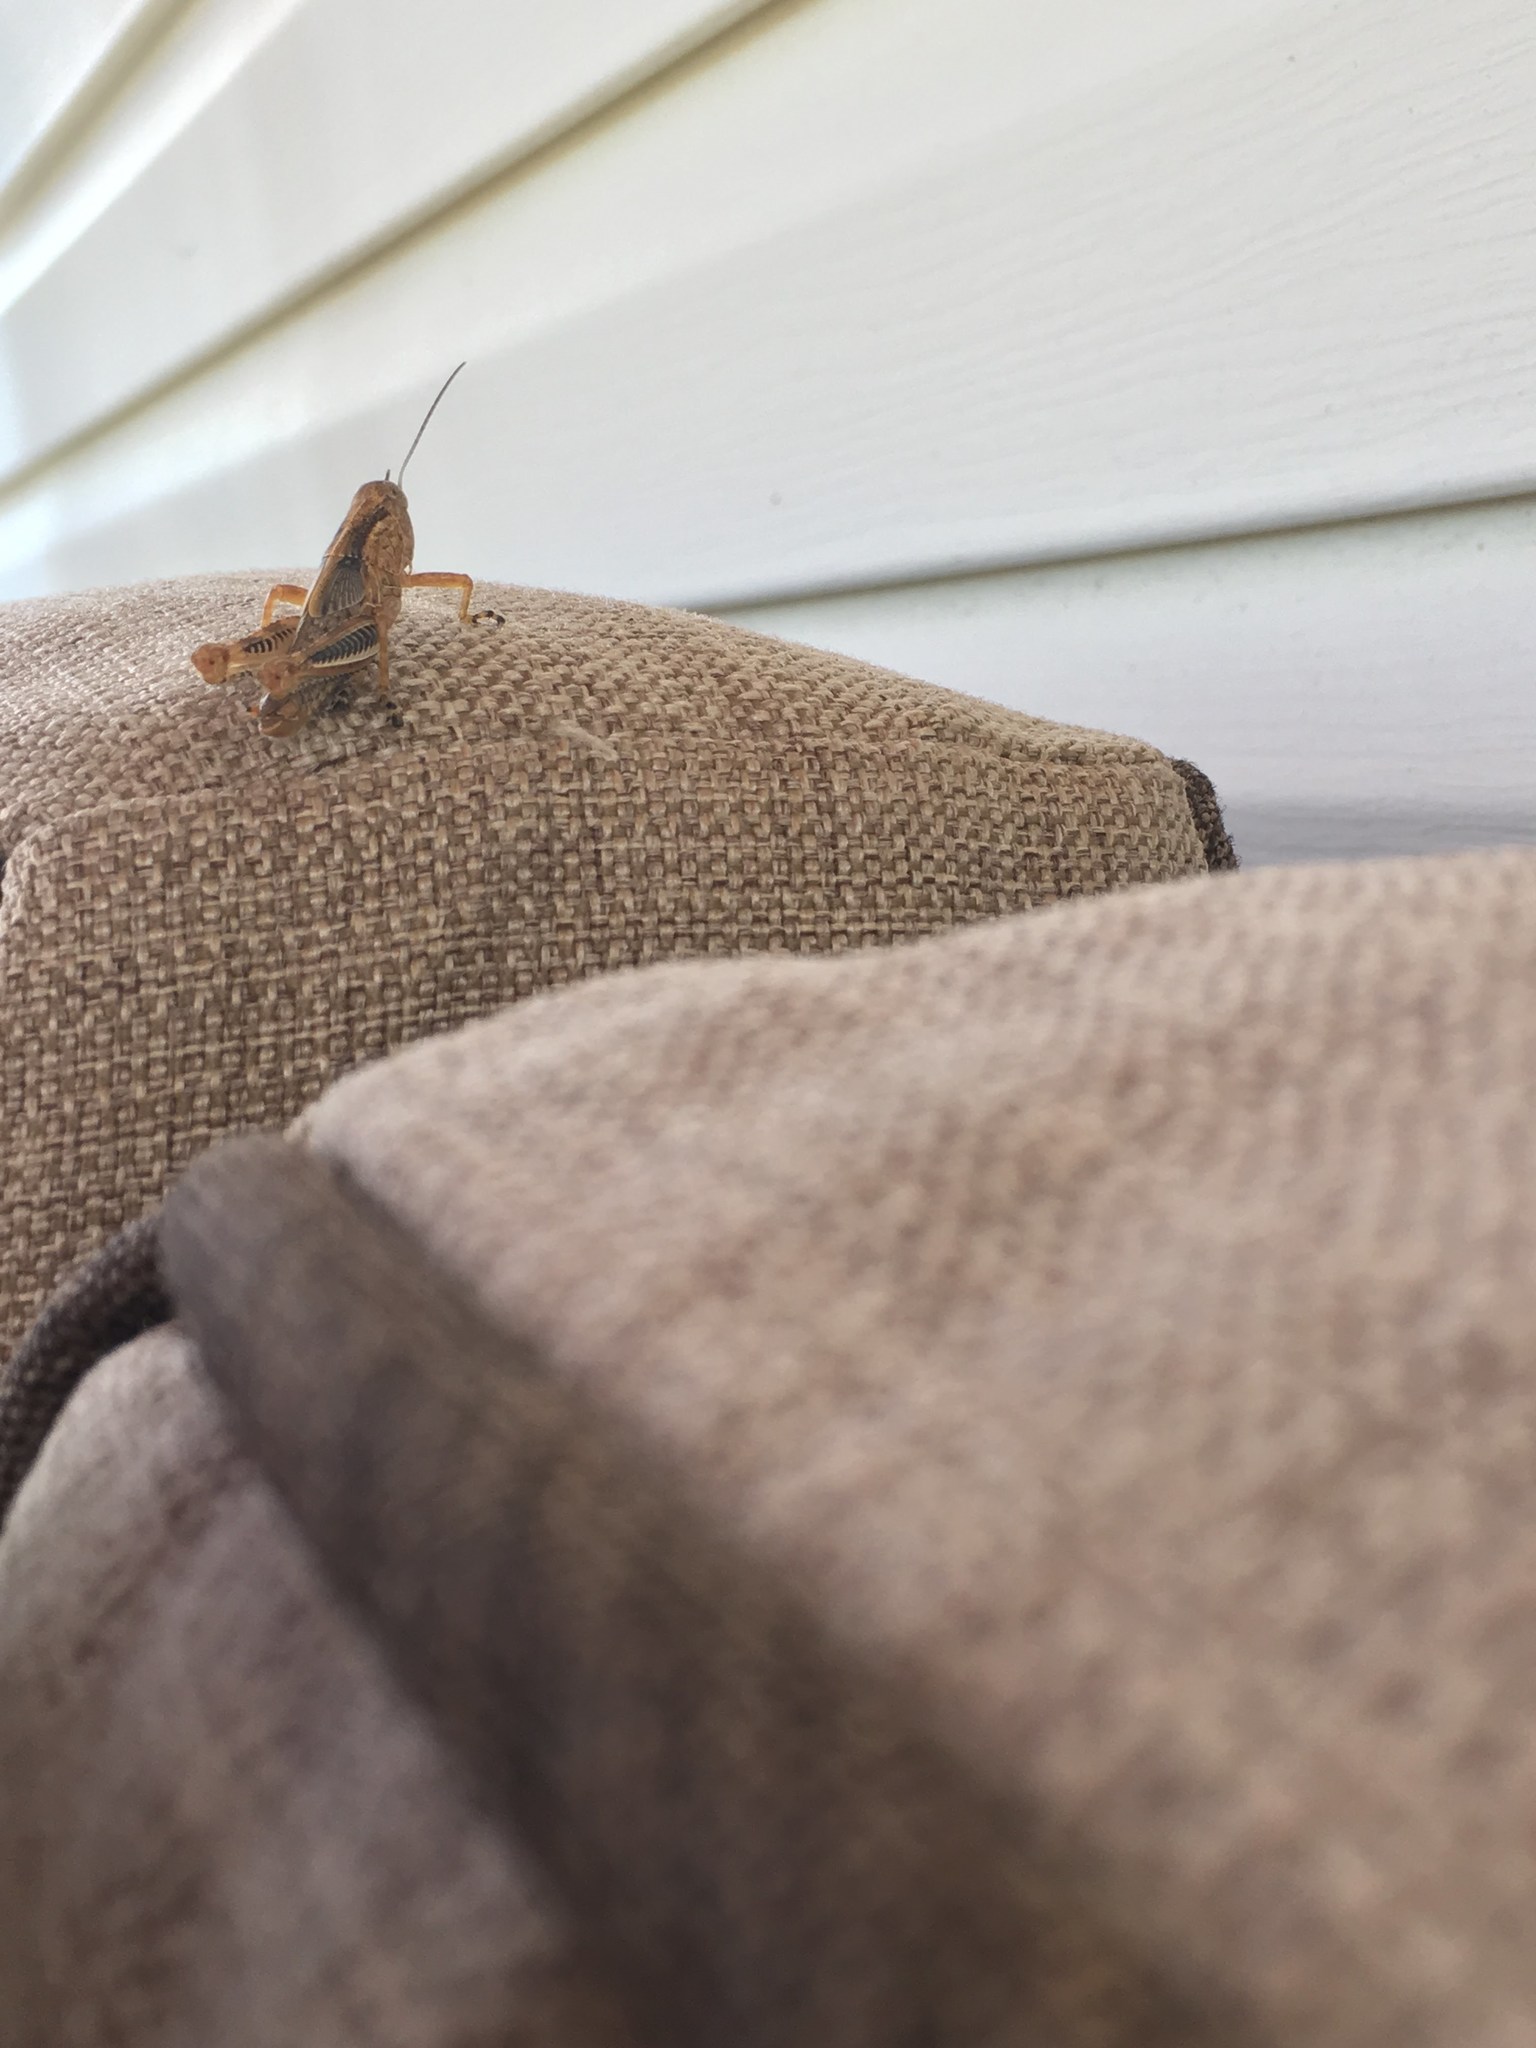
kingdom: Animalia
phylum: Arthropoda
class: Insecta
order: Orthoptera
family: Acrididae
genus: Melanoplus
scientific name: Melanoplus differentialis
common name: Differential grasshopper
